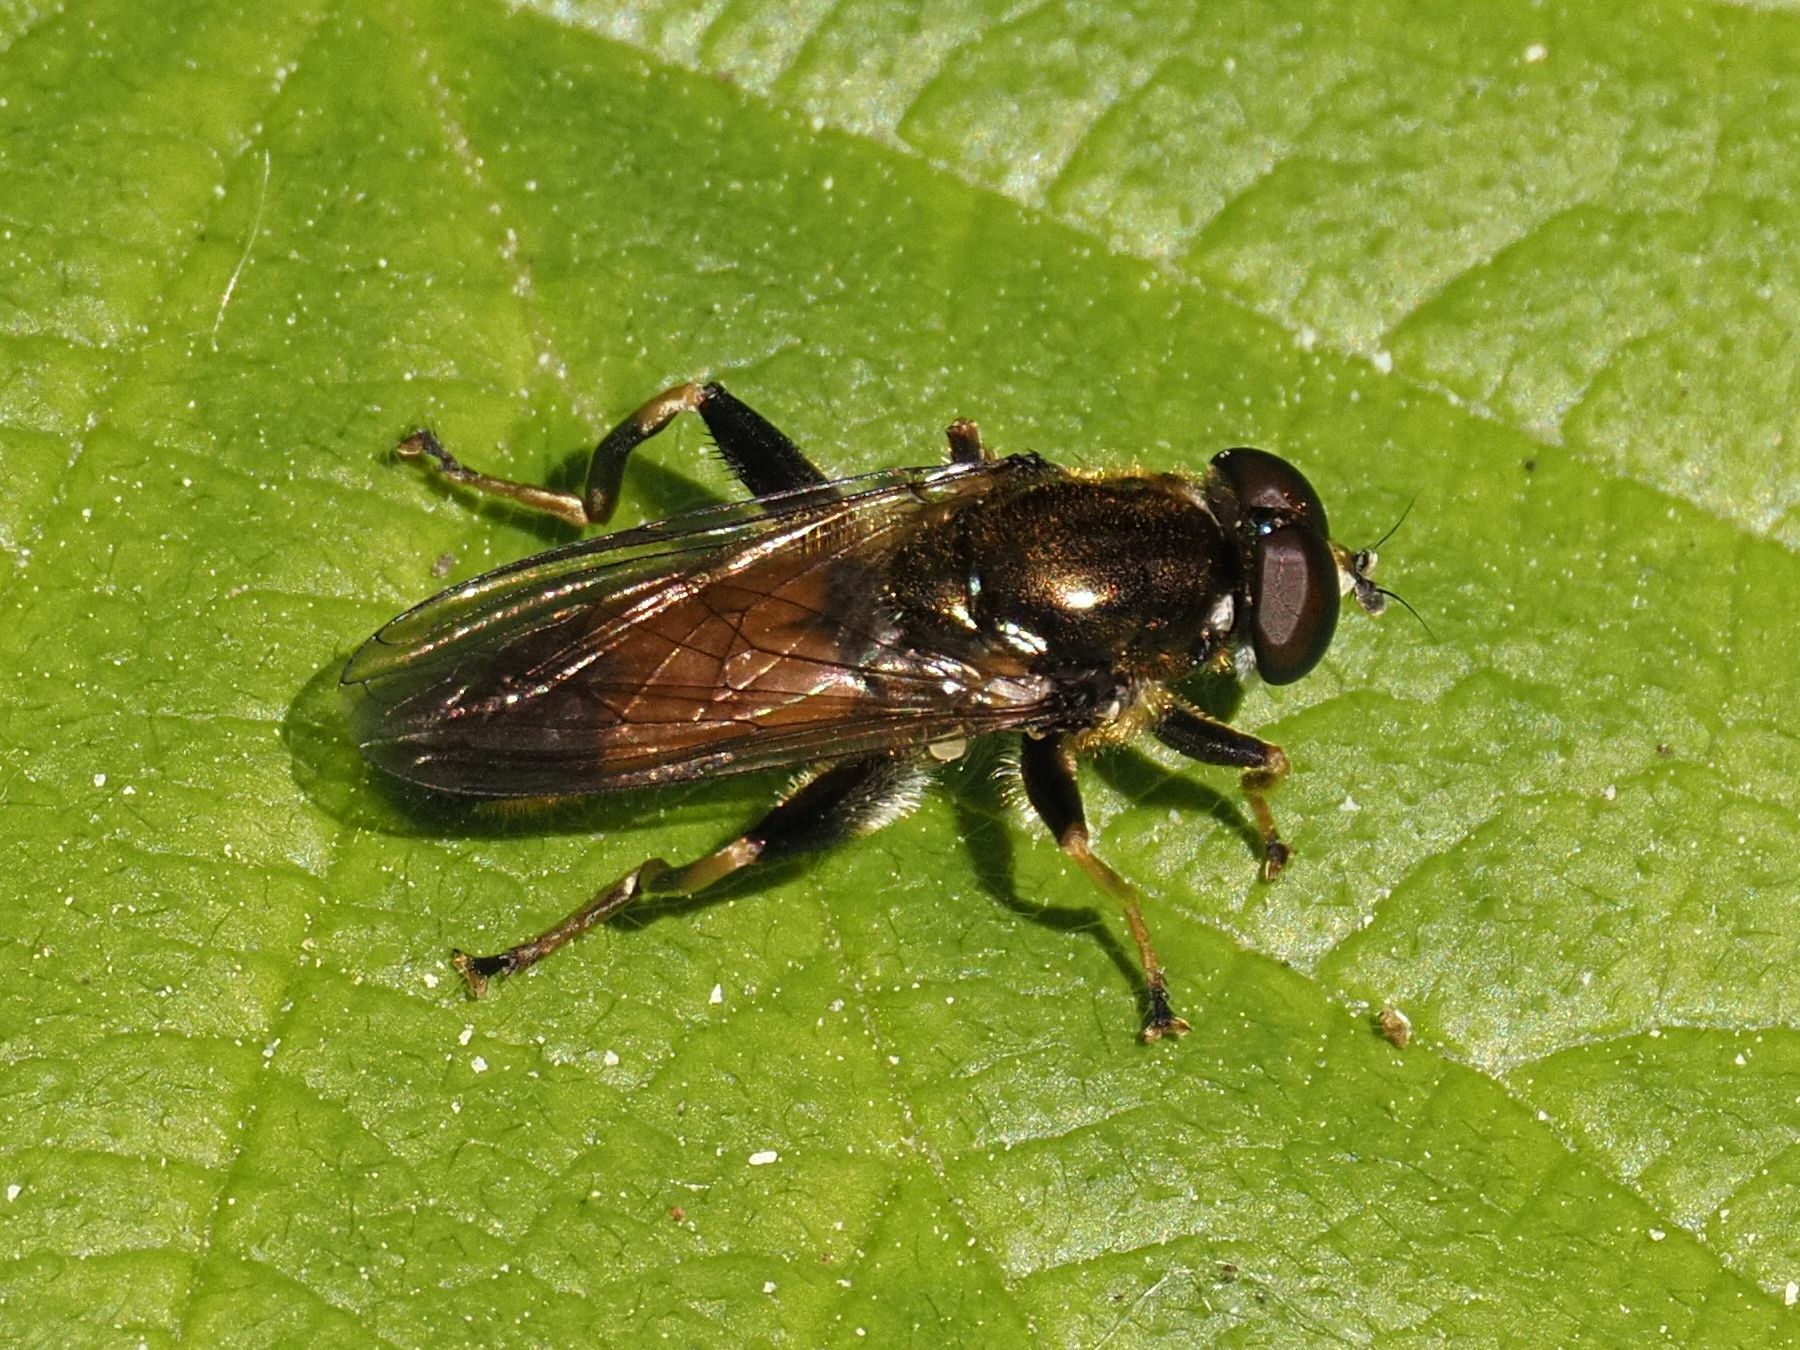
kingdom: Animalia
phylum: Arthropoda
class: Insecta
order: Diptera
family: Syrphidae
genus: Xylota
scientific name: Xylota segnis
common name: Brown-toed forest fly
